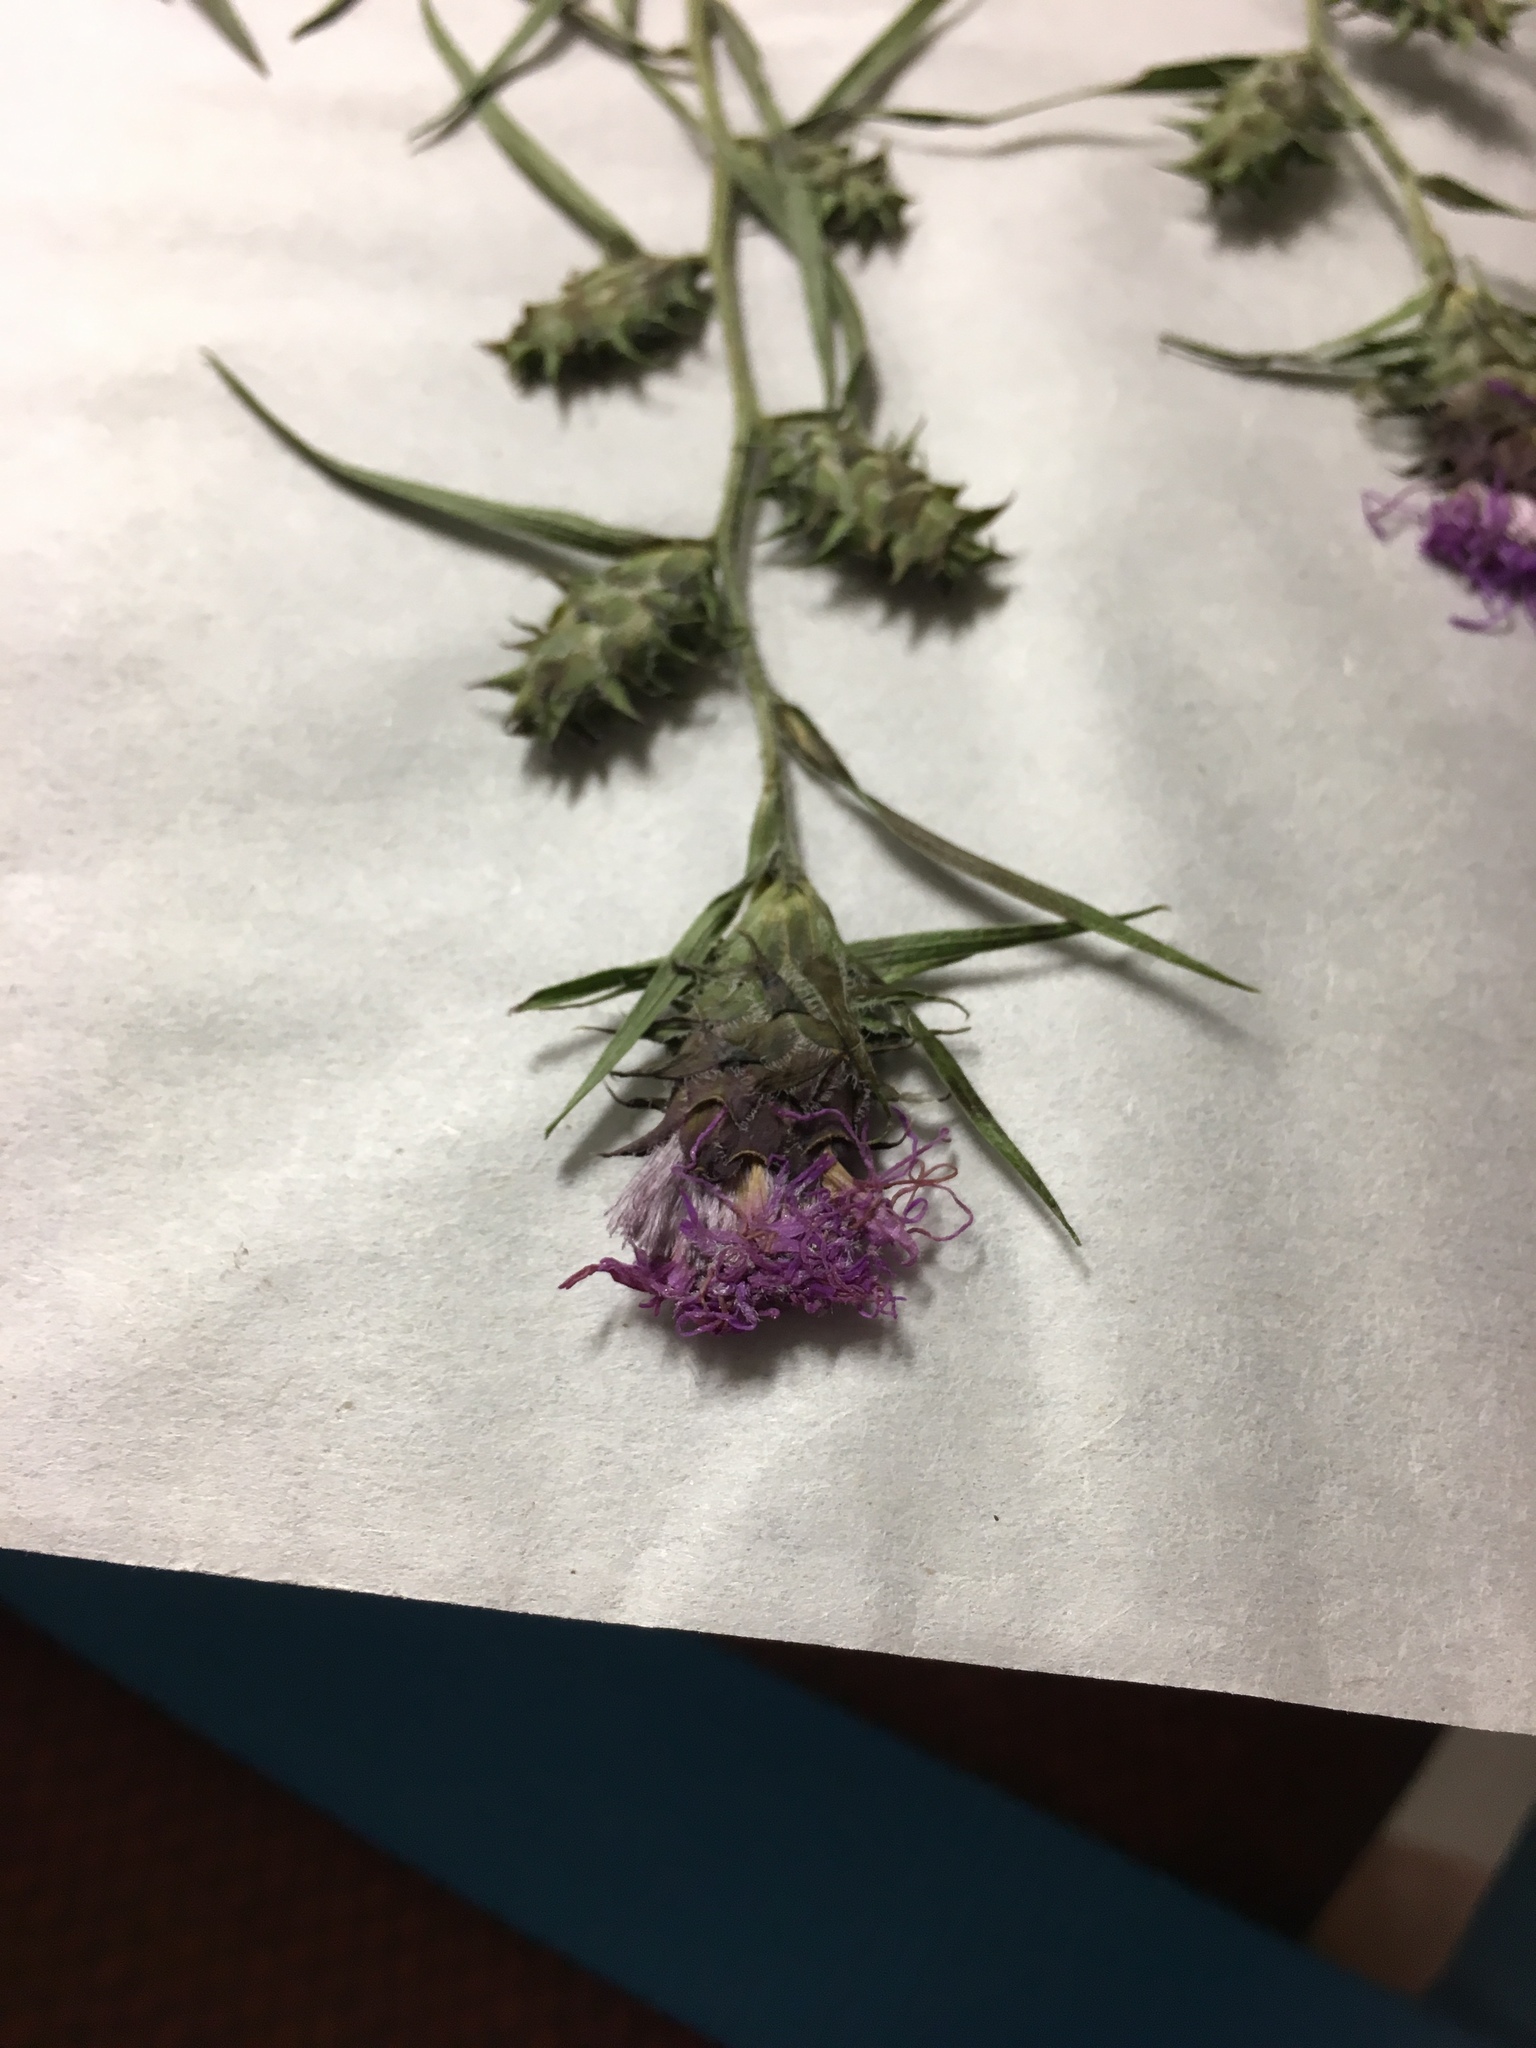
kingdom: Plantae
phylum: Tracheophyta
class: Magnoliopsida
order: Asterales
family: Asteraceae
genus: Liatris
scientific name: Liatris squarrosa
